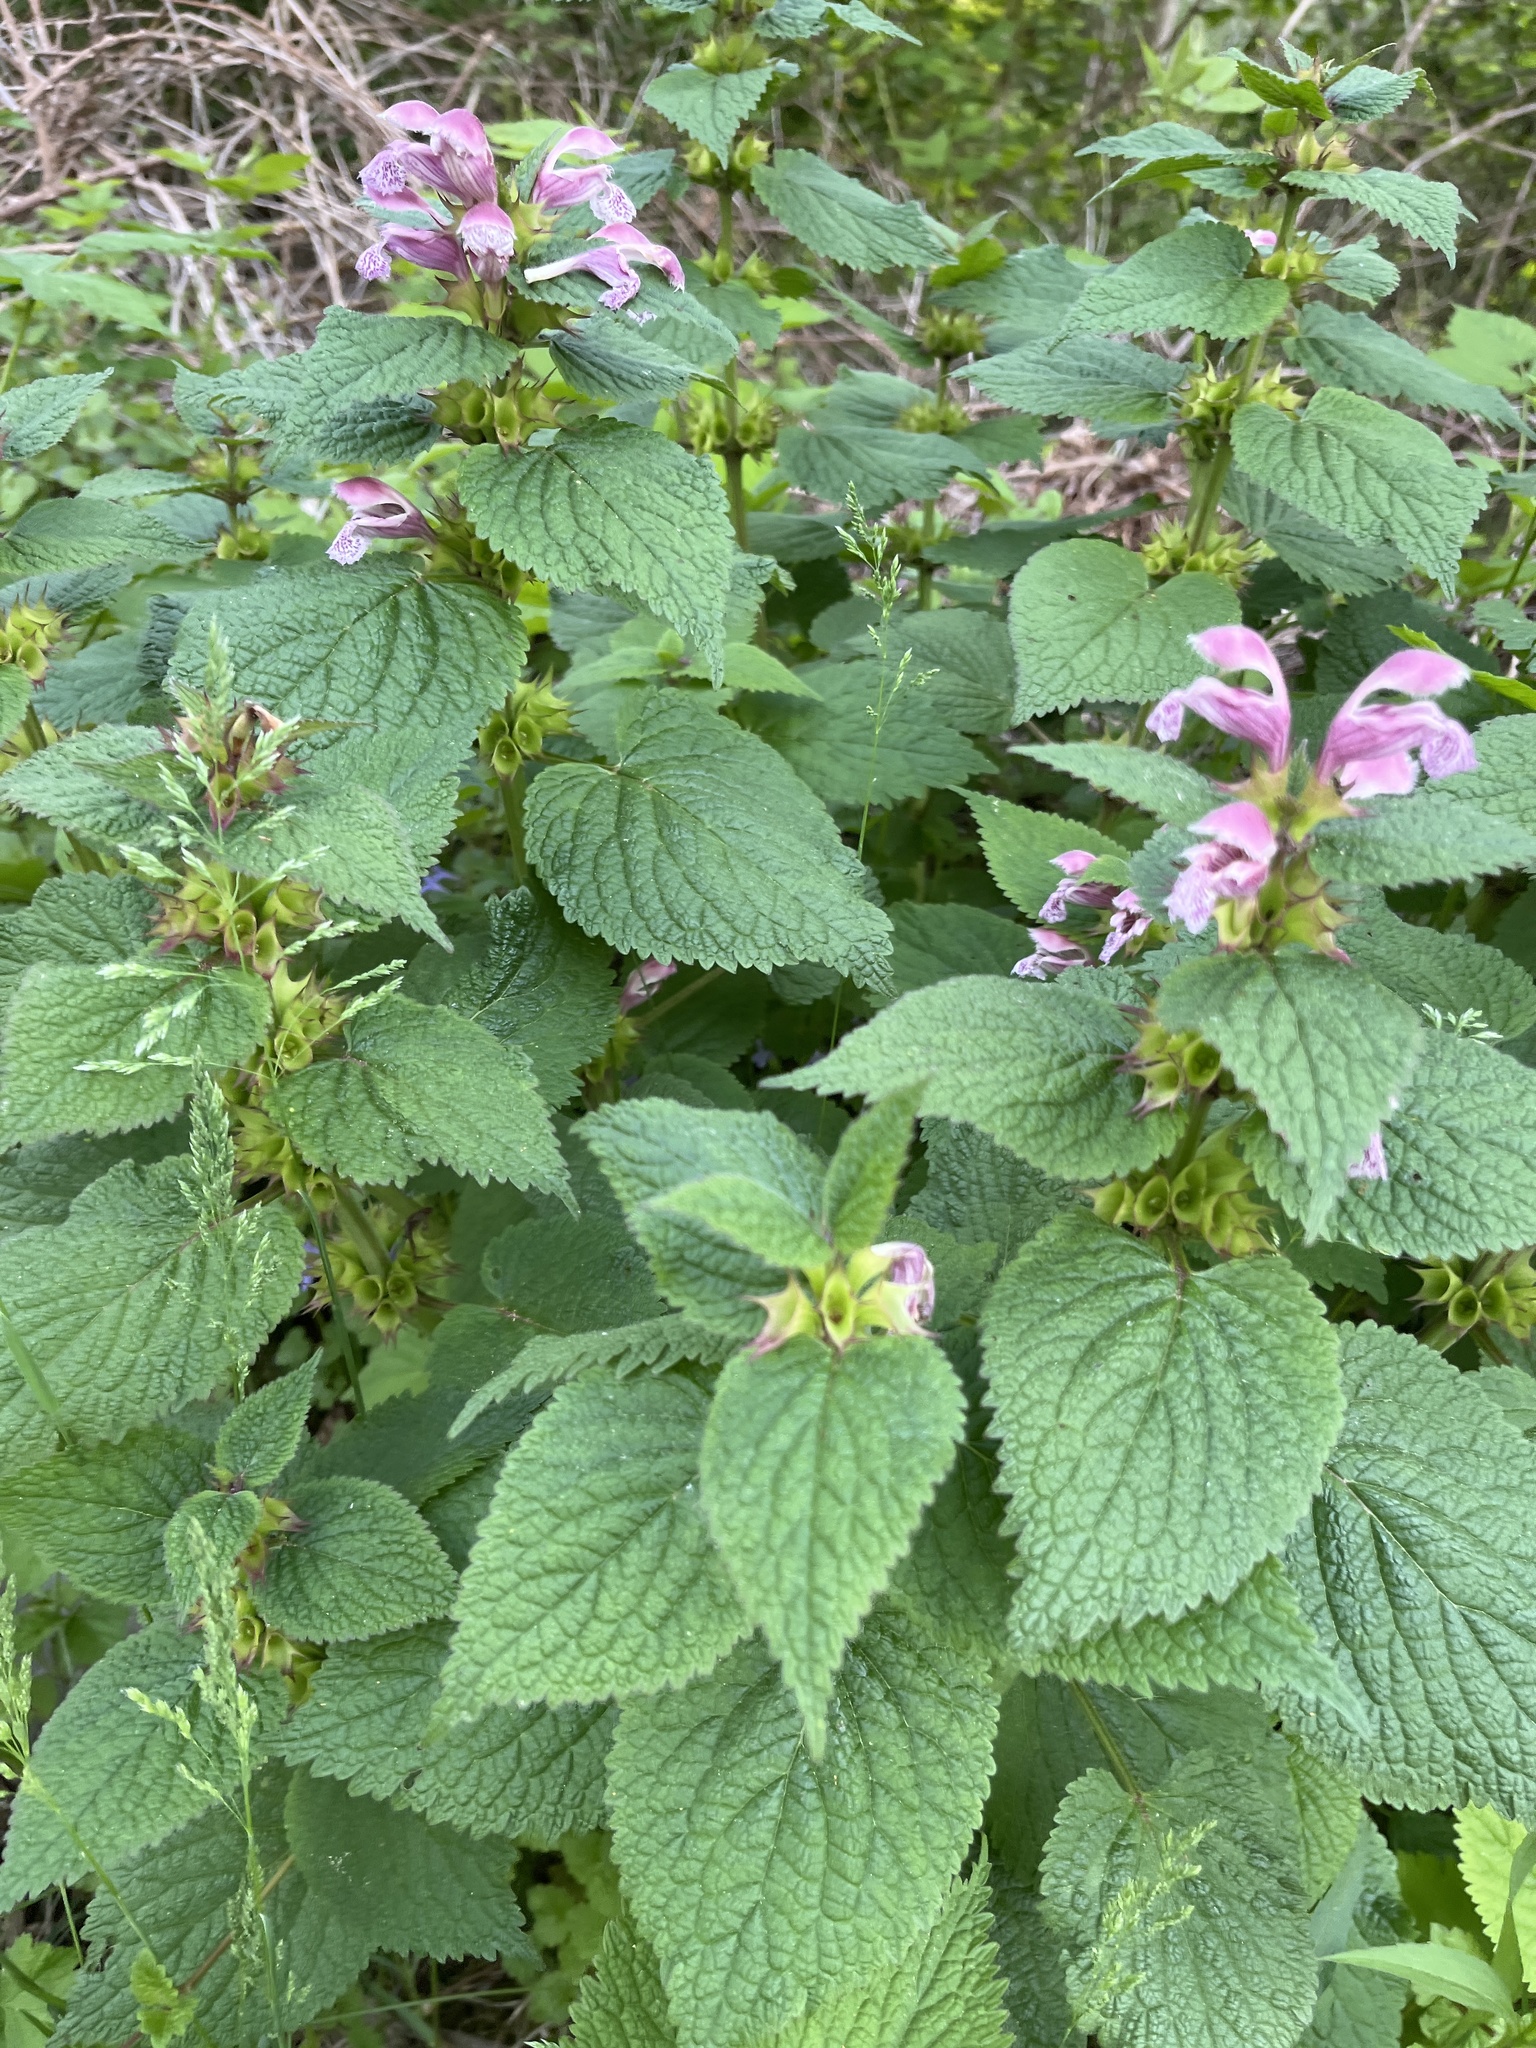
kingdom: Plantae
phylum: Tracheophyta
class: Magnoliopsida
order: Lamiales
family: Lamiaceae
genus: Lamium
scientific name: Lamium orvala
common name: Balm-leaved archangel
